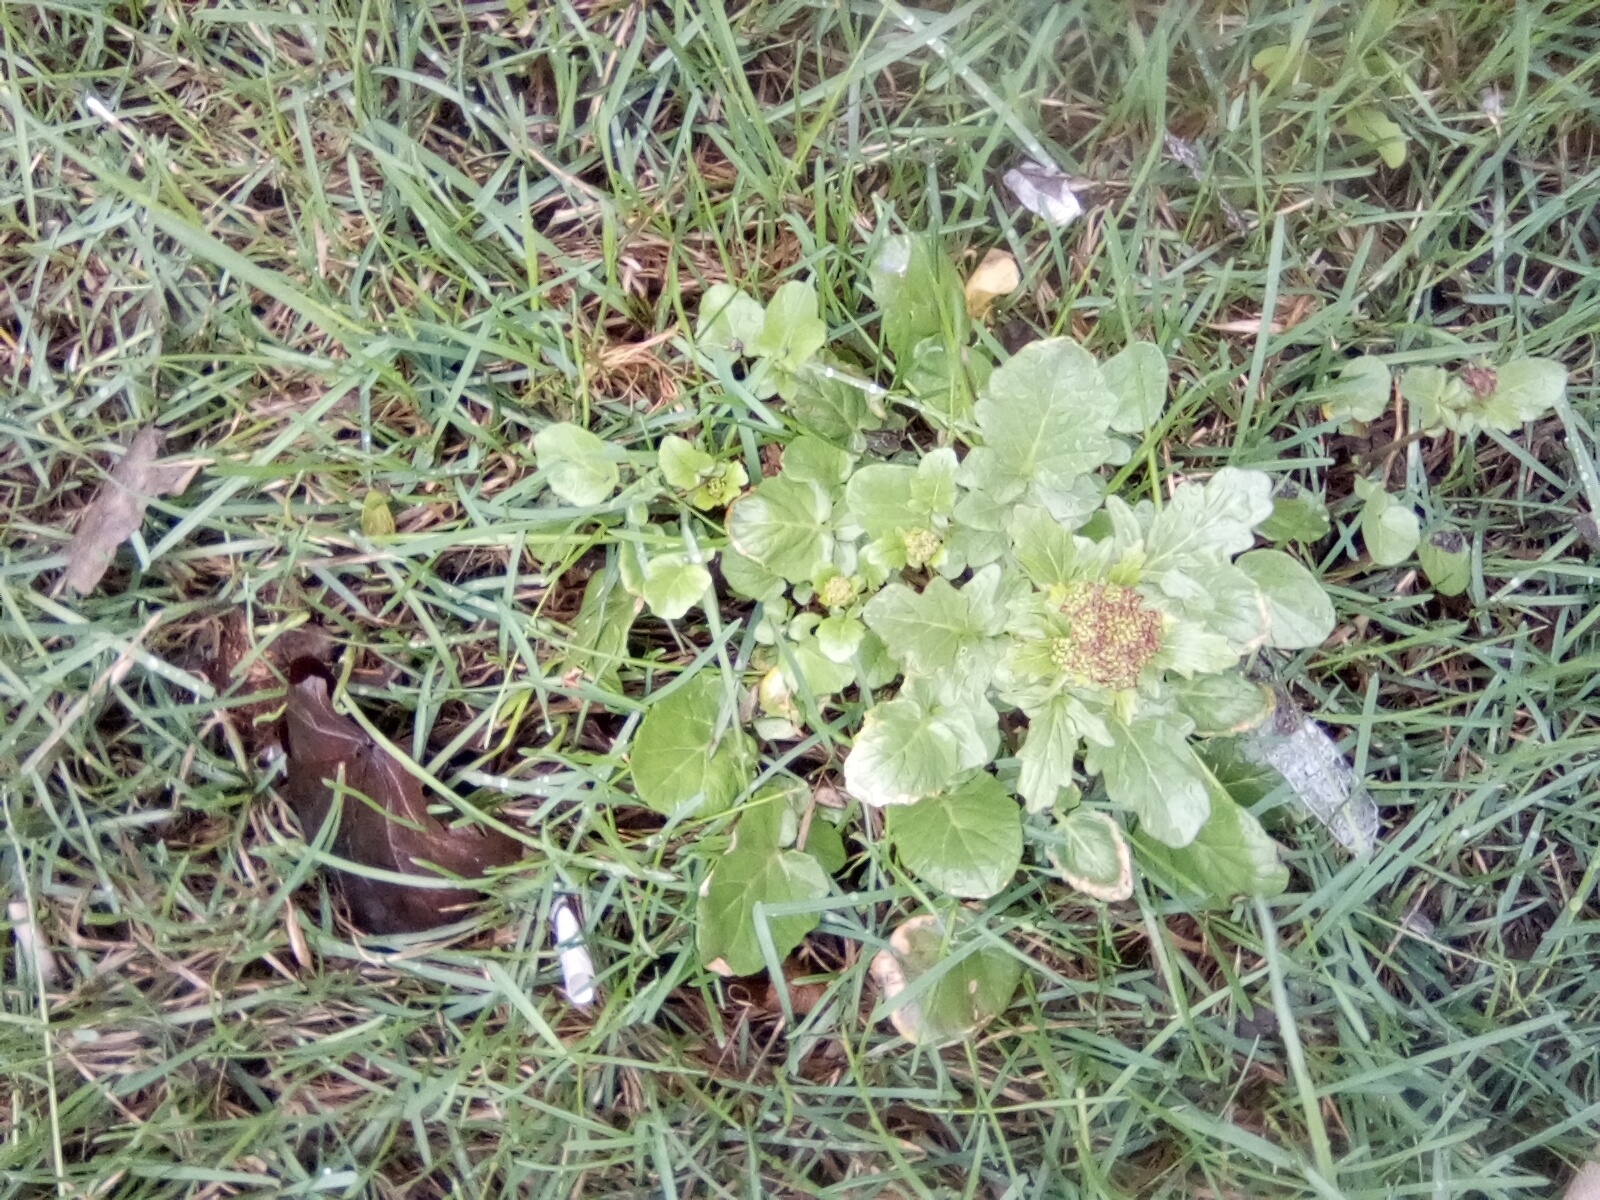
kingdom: Plantae
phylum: Tracheophyta
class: Magnoliopsida
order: Brassicales
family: Brassicaceae
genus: Barbarea
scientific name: Barbarea vulgaris
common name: Cressy-greens
